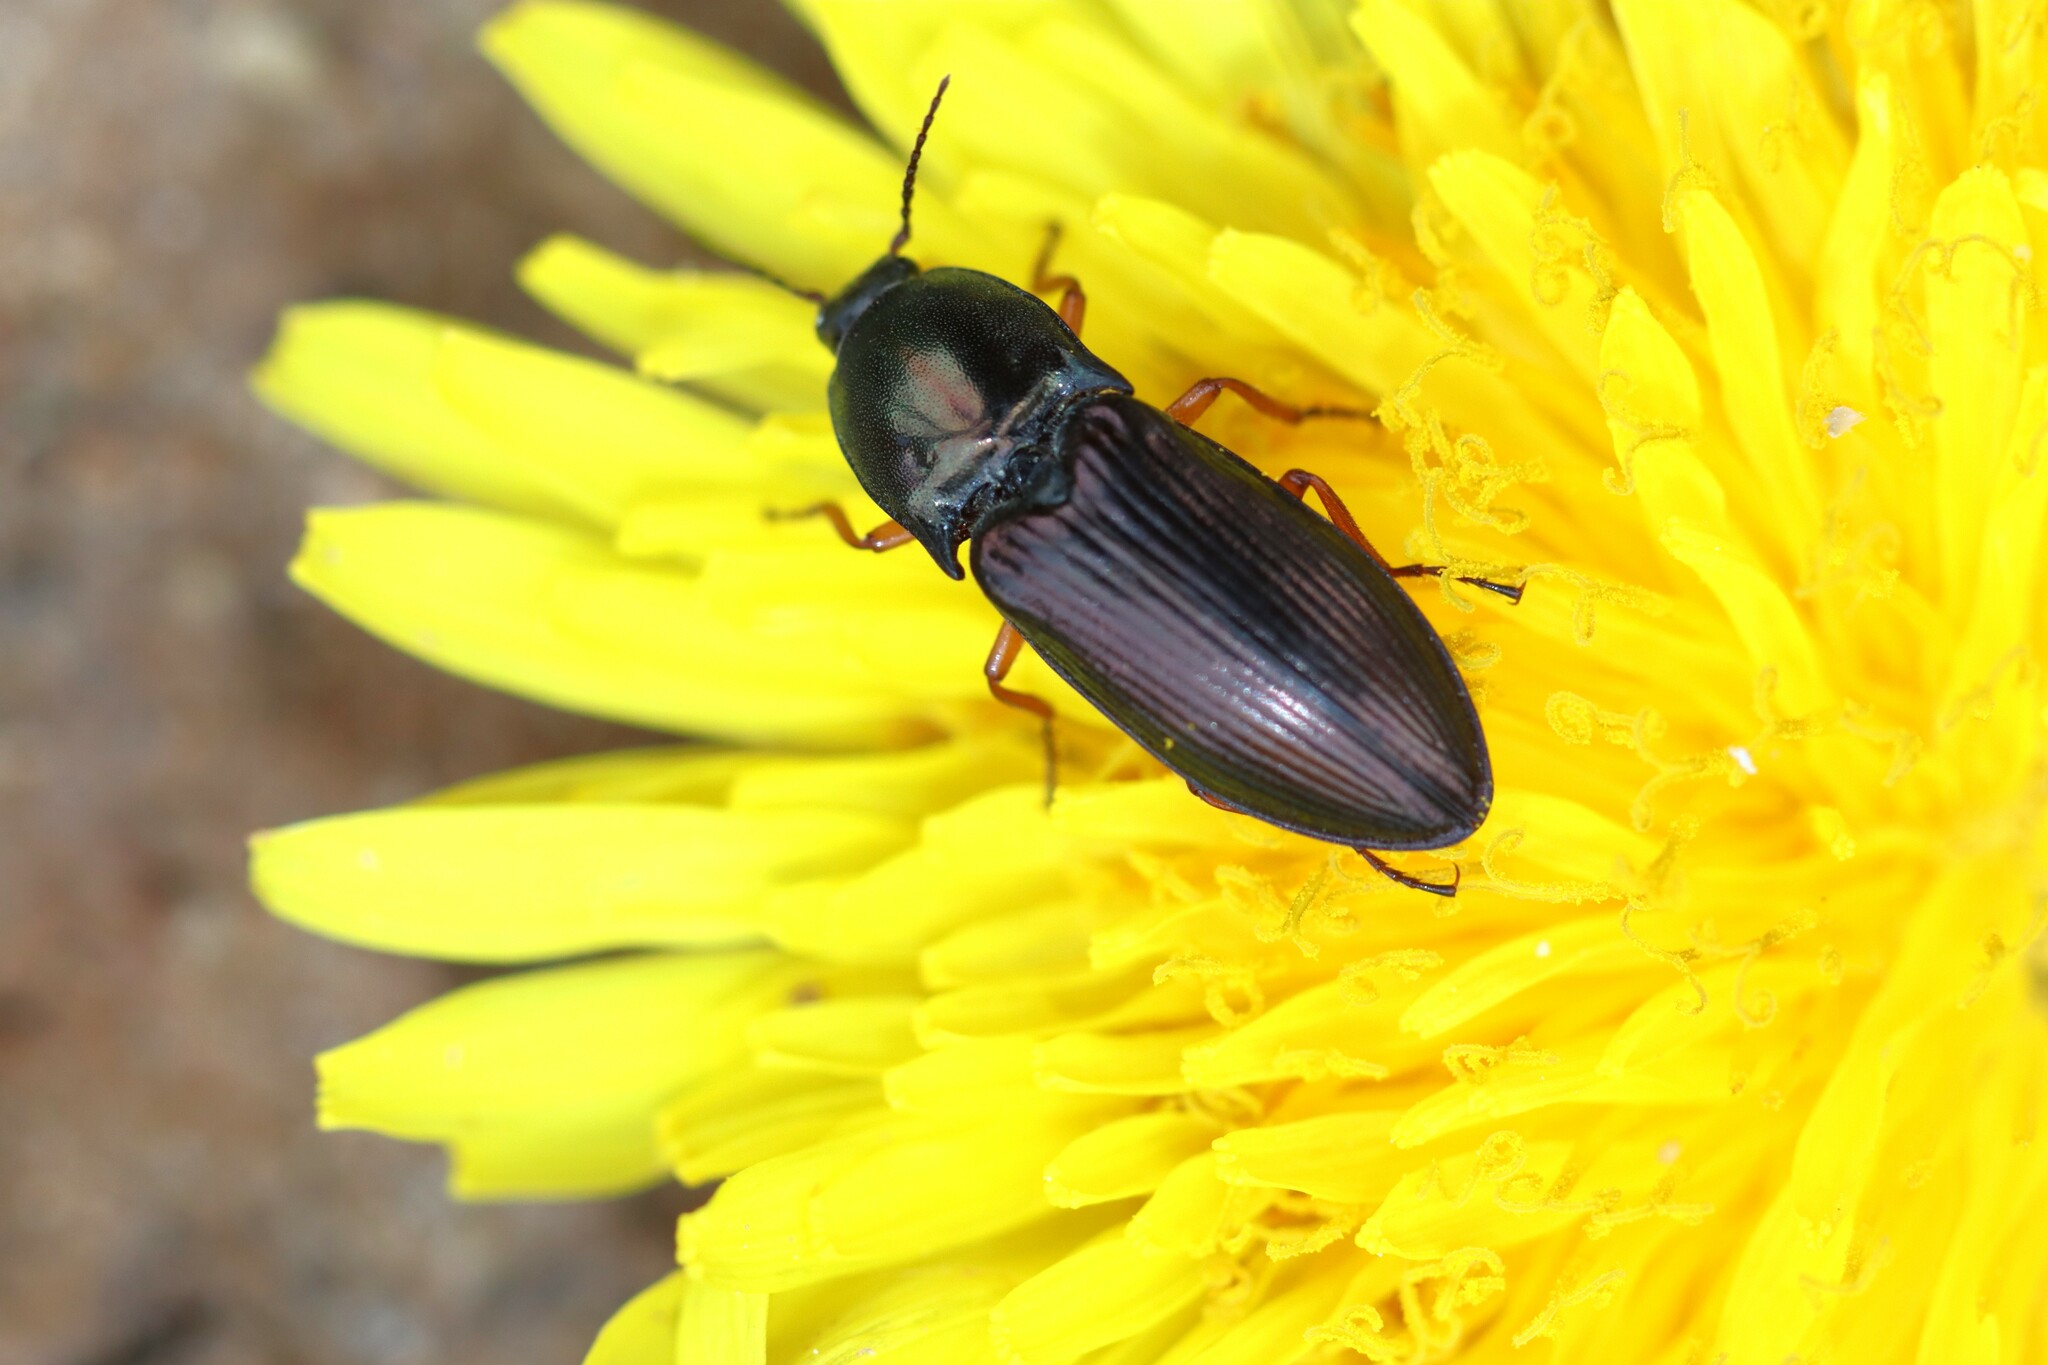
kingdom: Animalia
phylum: Arthropoda
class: Insecta
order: Coleoptera
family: Elateridae
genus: Selatosomus
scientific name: Selatosomus aeneus
